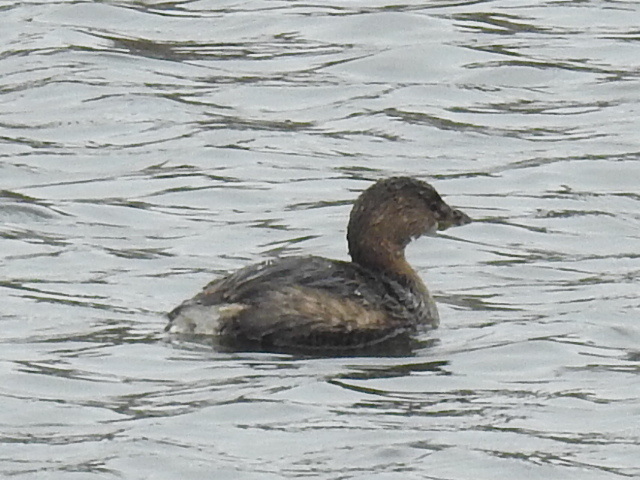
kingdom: Animalia
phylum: Chordata
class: Aves
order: Podicipediformes
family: Podicipedidae
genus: Podilymbus
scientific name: Podilymbus podiceps
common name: Pied-billed grebe
